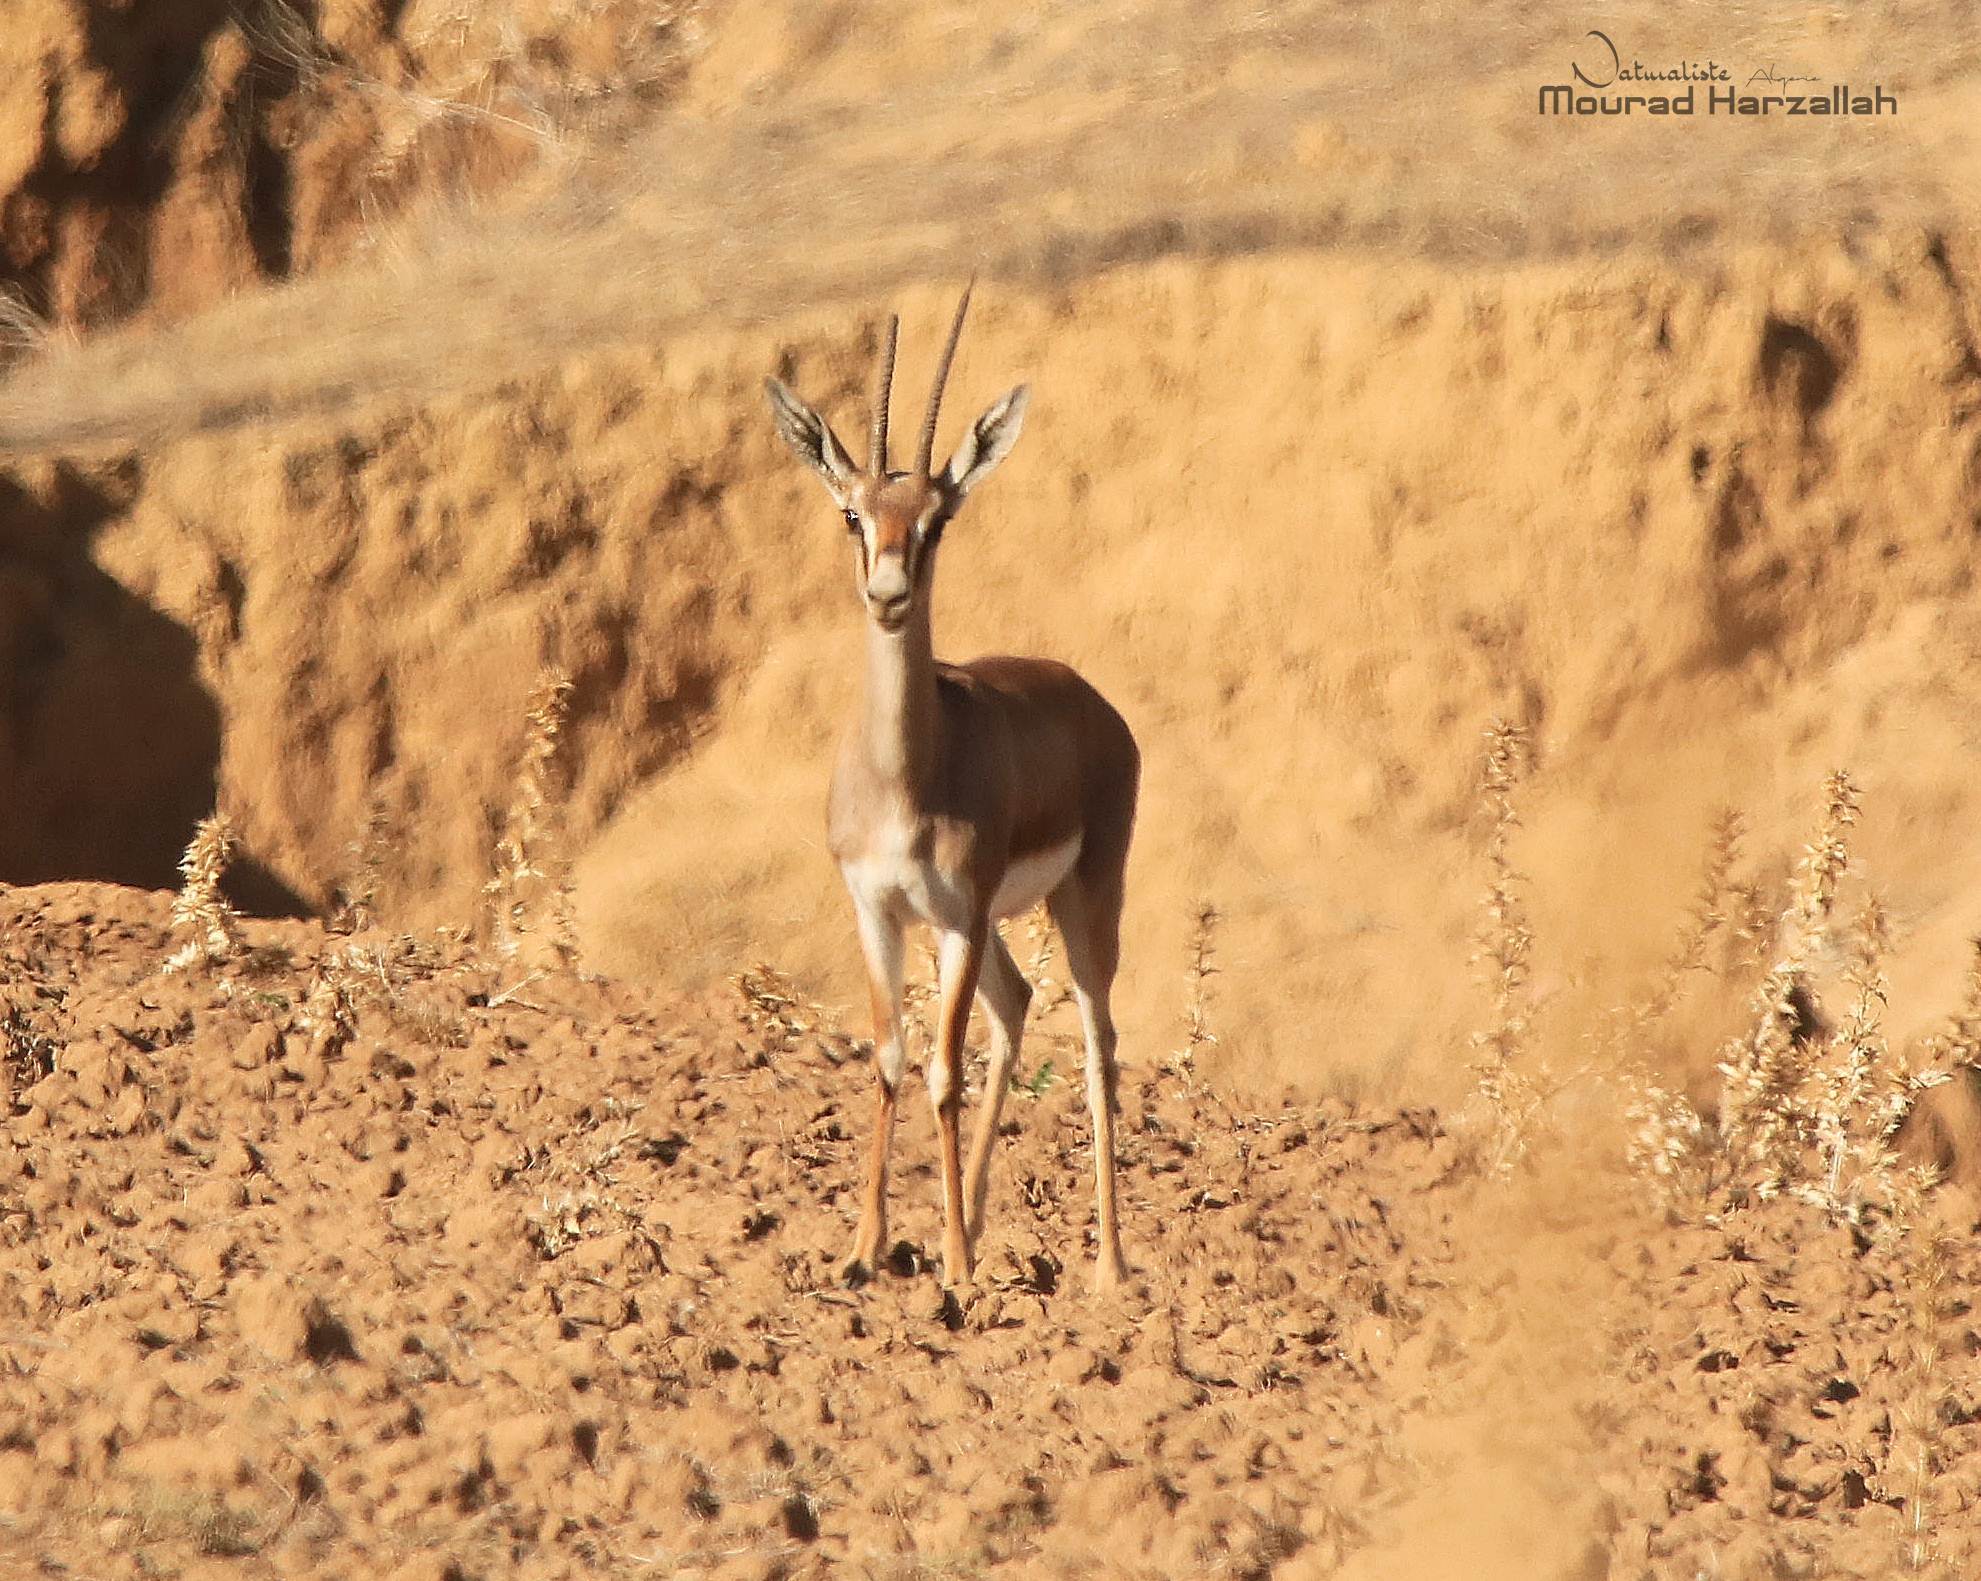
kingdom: Animalia
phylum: Chordata
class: Mammalia
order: Artiodactyla
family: Bovidae
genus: Gazella
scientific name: Gazella cuvieri
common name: Cuvier's gazelle
